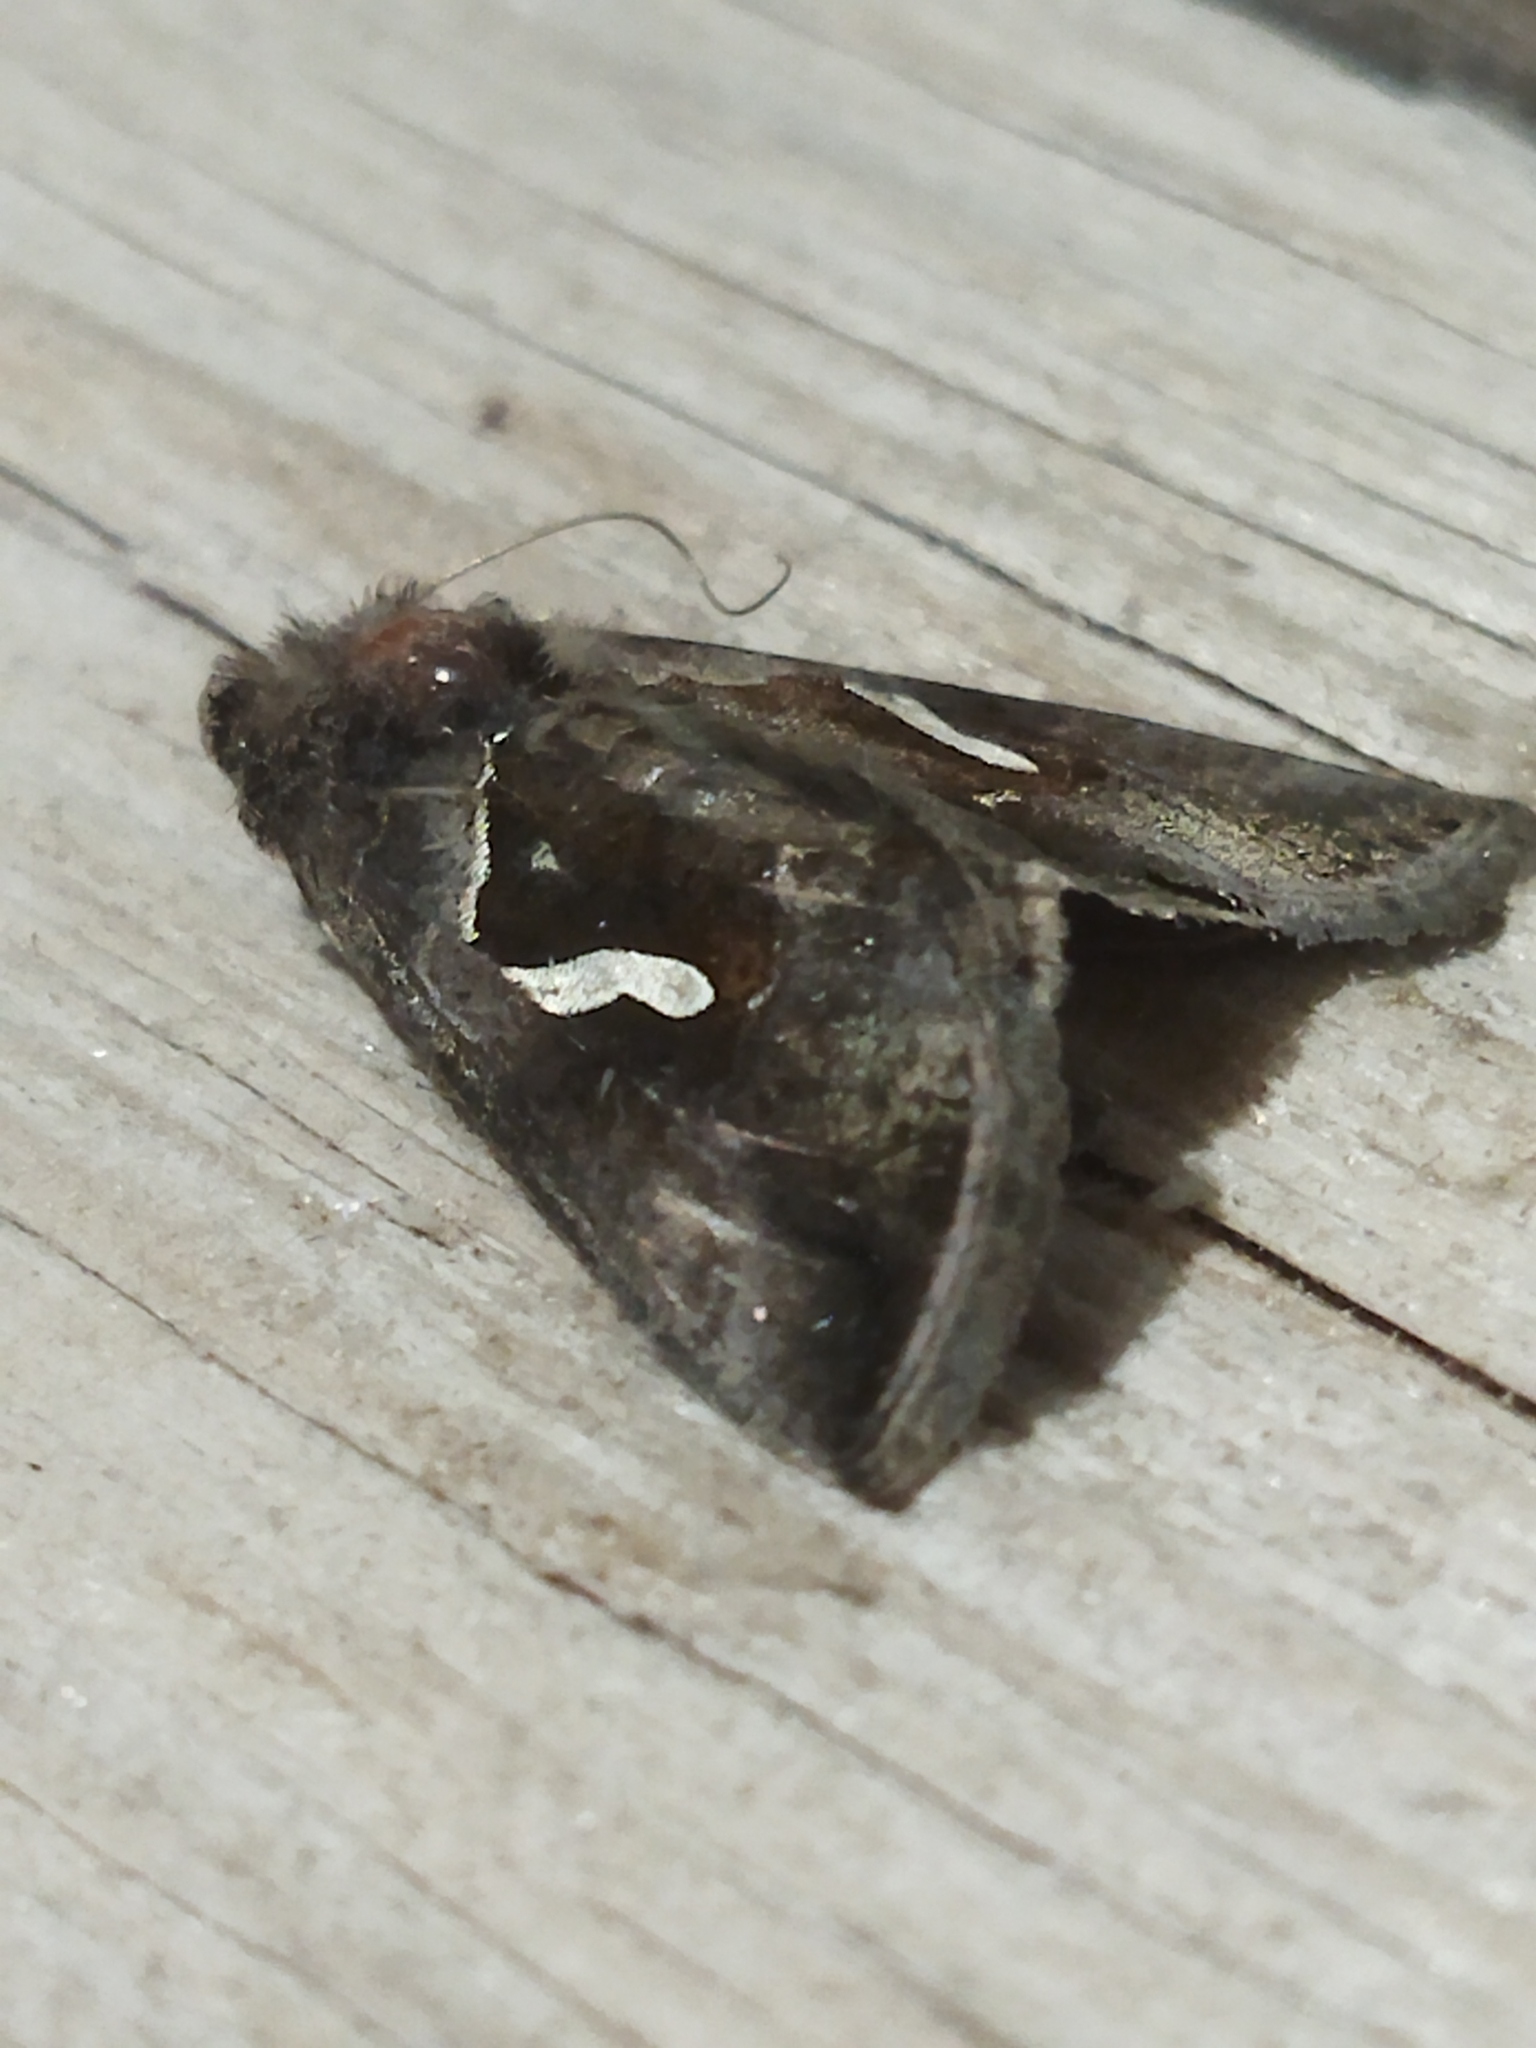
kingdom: Animalia
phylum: Arthropoda
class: Insecta
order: Lepidoptera
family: Noctuidae
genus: Macdunnoughia
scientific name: Macdunnoughia confusa
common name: Dewick's plusia
